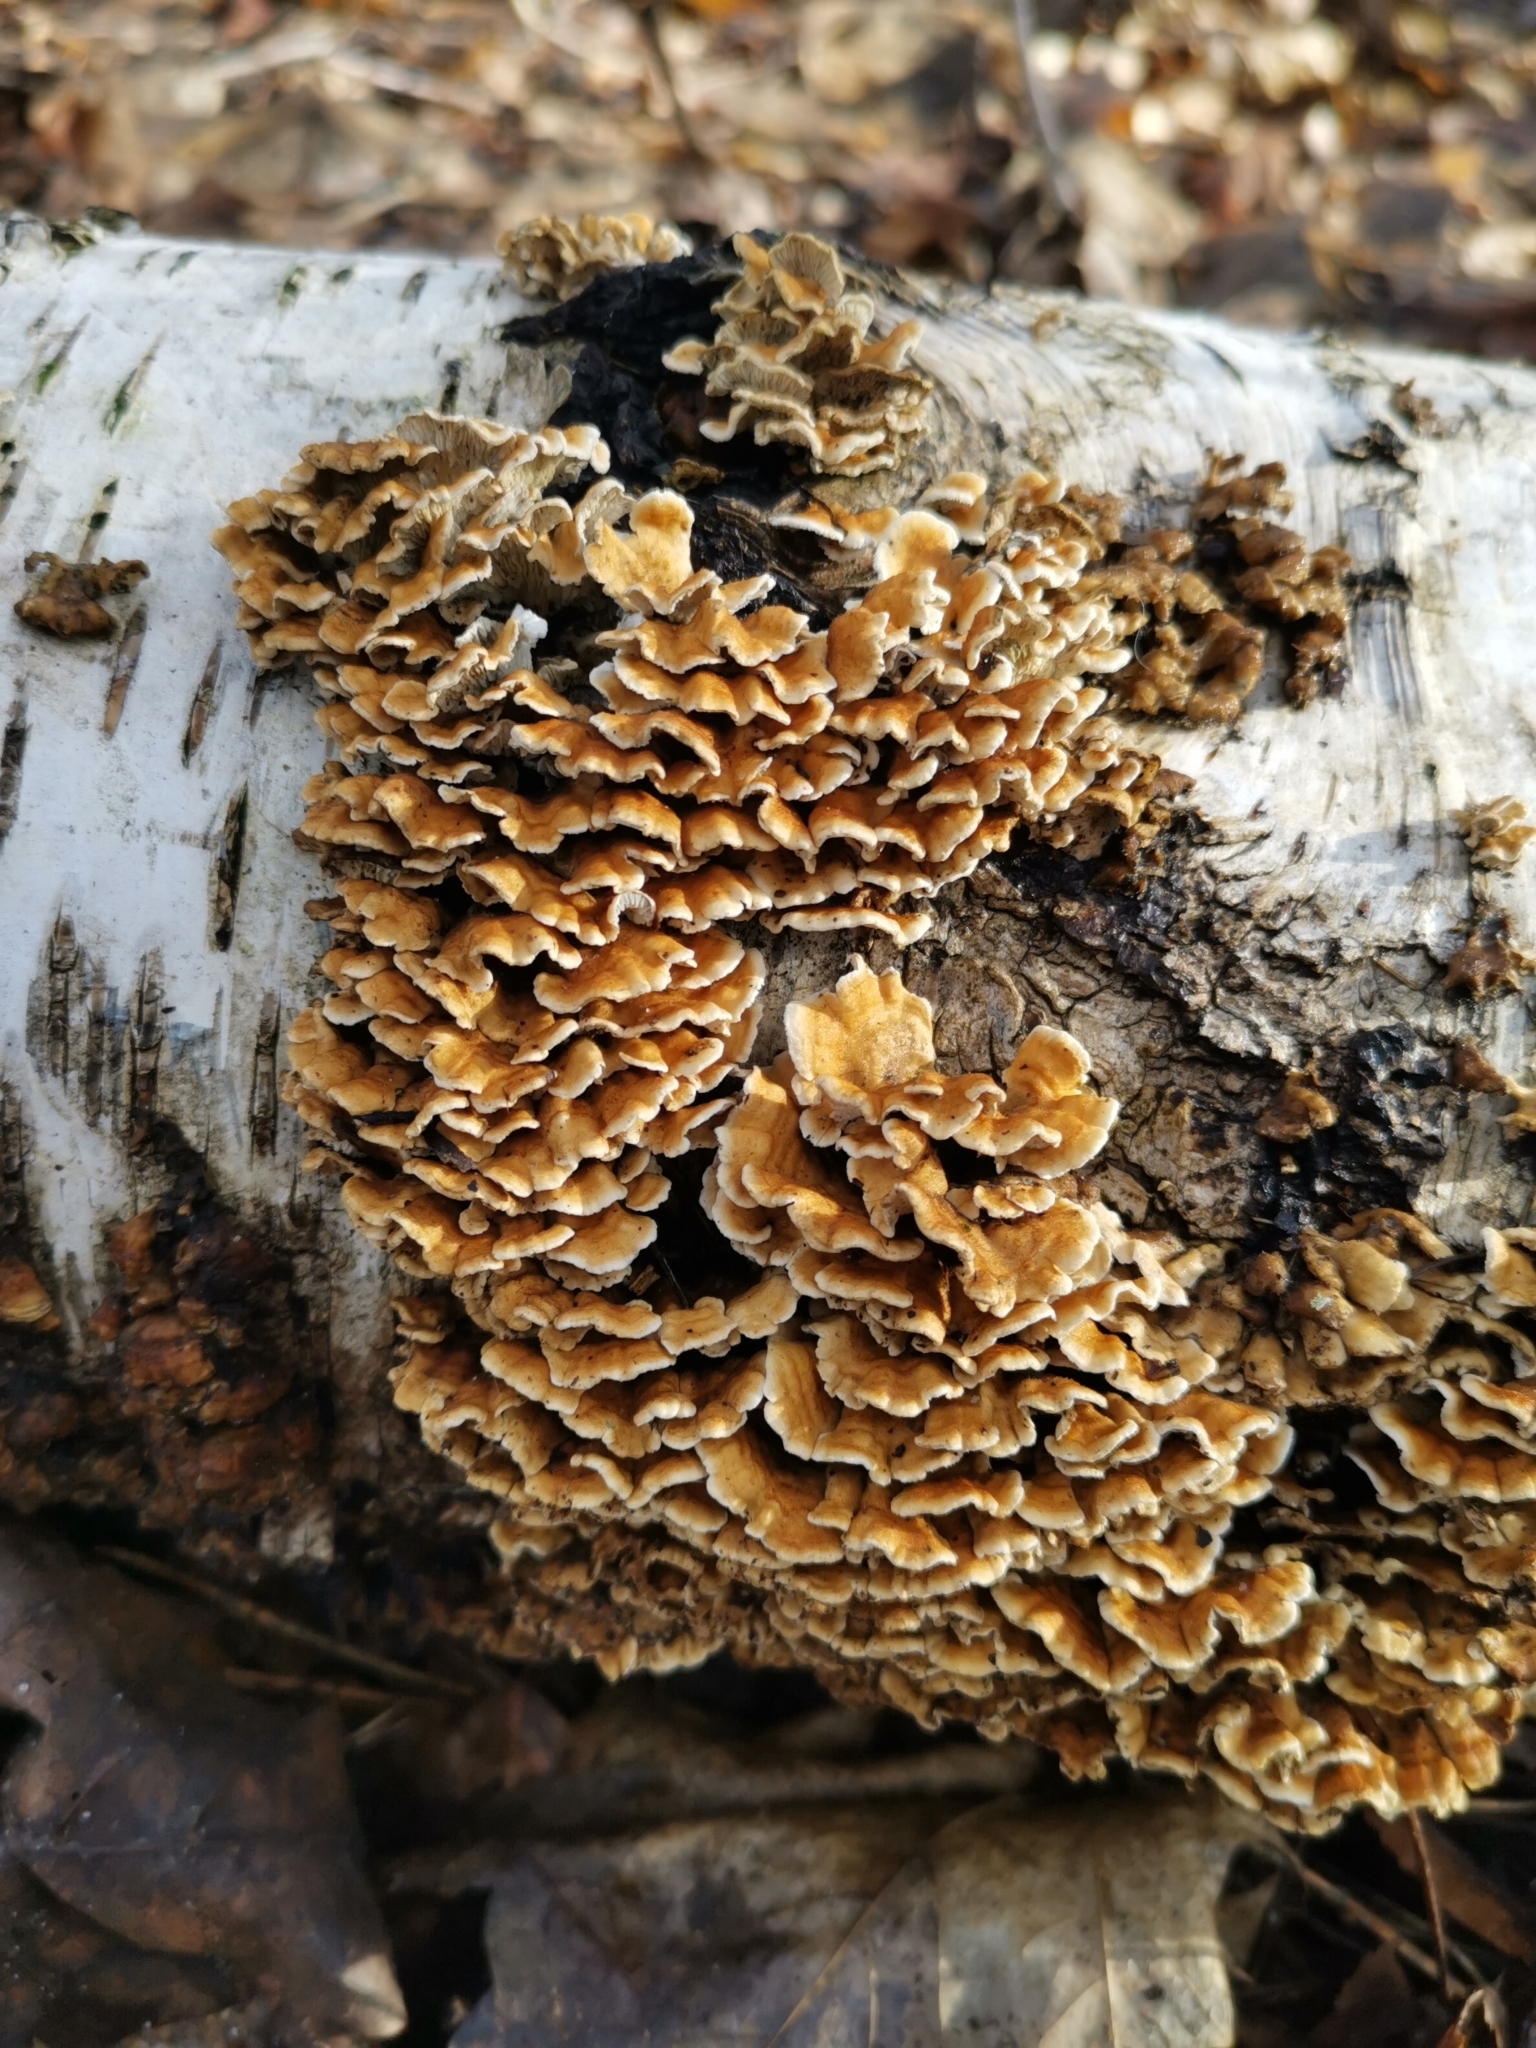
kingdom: Fungi
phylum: Basidiomycota
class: Agaricomycetes
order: Amylocorticiales
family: Amylocorticiaceae
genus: Plicaturopsis
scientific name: Plicaturopsis crispa
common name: Crimped gill
